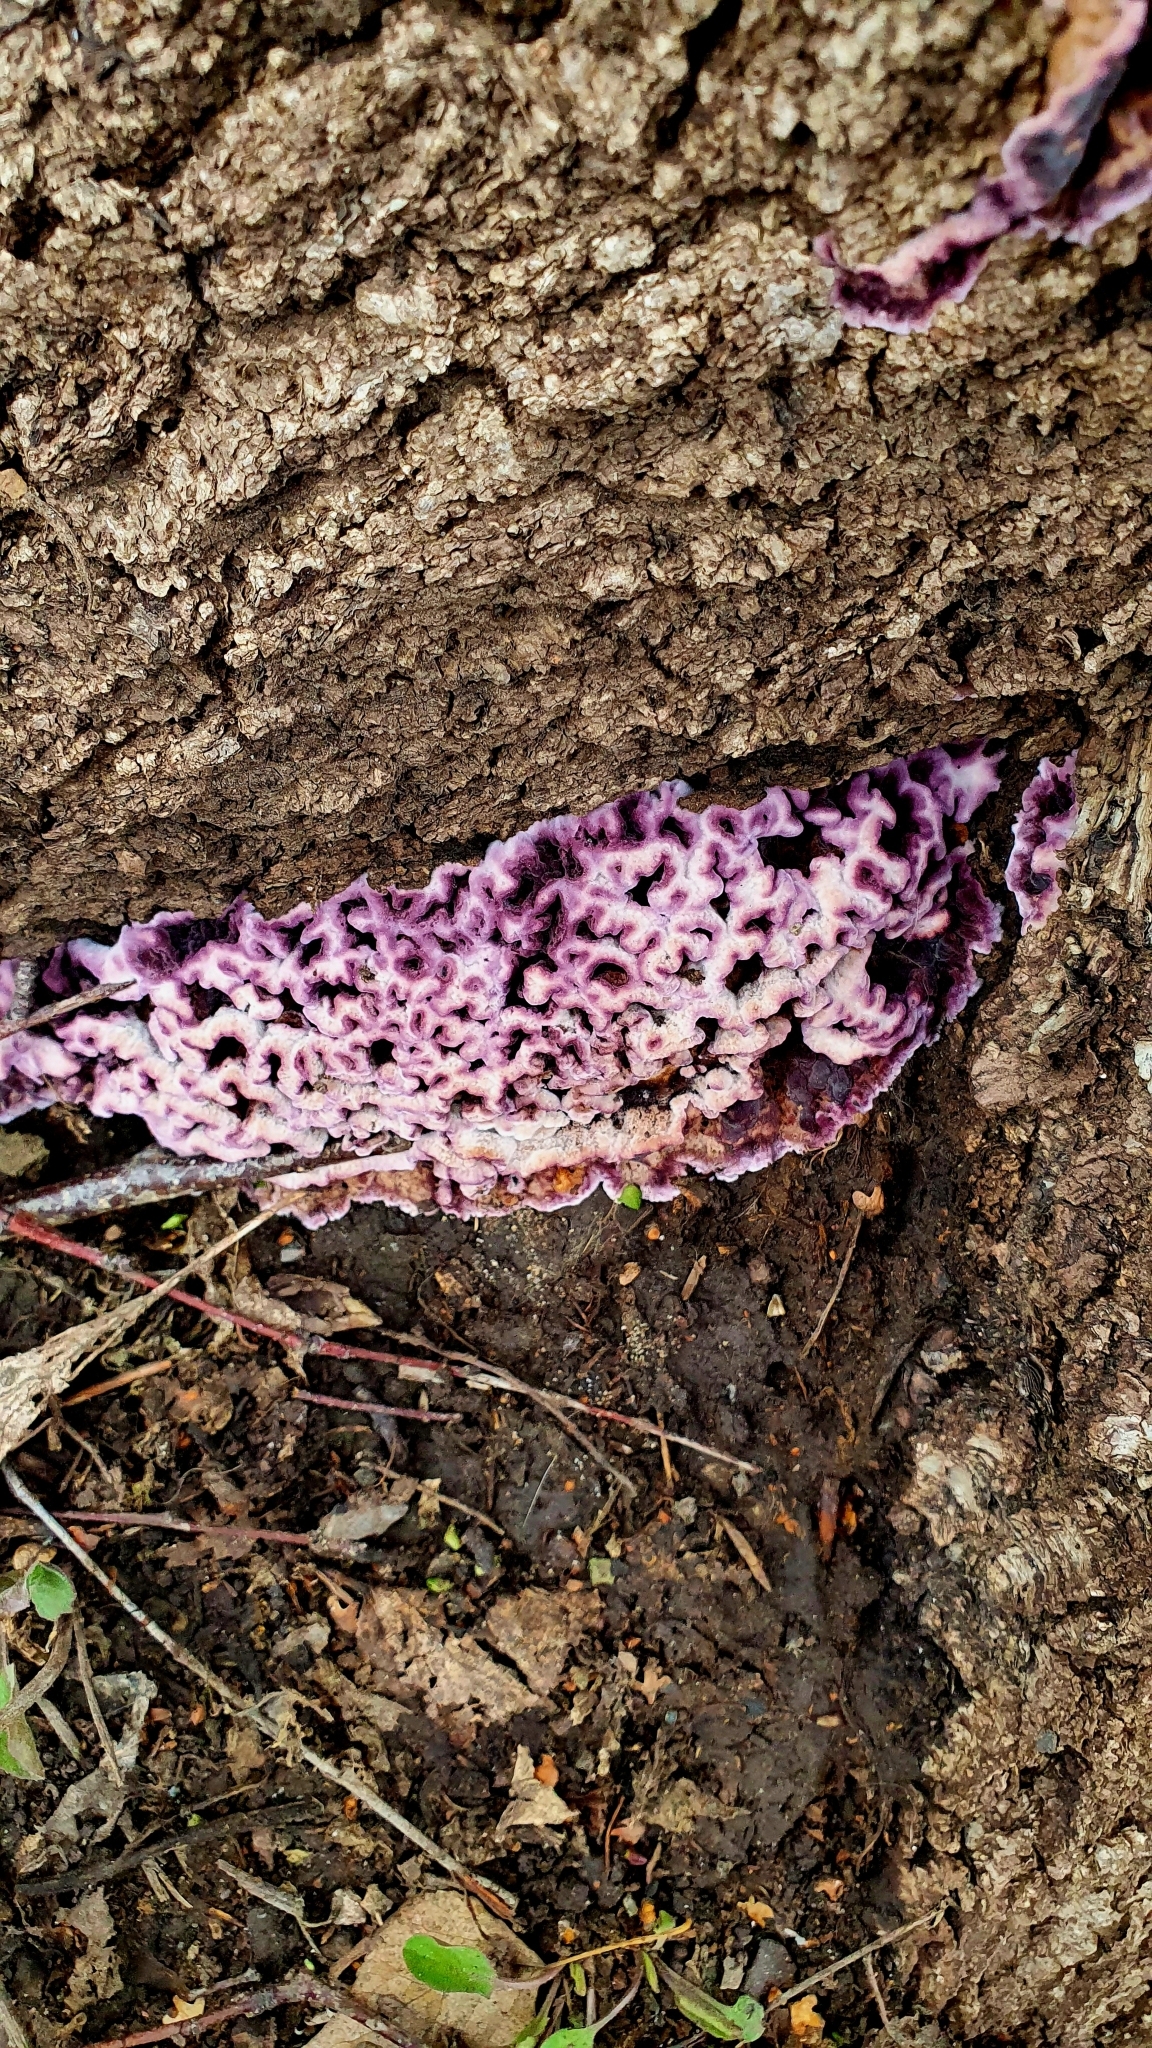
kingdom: Fungi
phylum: Basidiomycota
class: Agaricomycetes
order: Agaricales
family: Cyphellaceae
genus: Chondrostereum
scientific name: Chondrostereum purpureum
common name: Silver leaf disease
